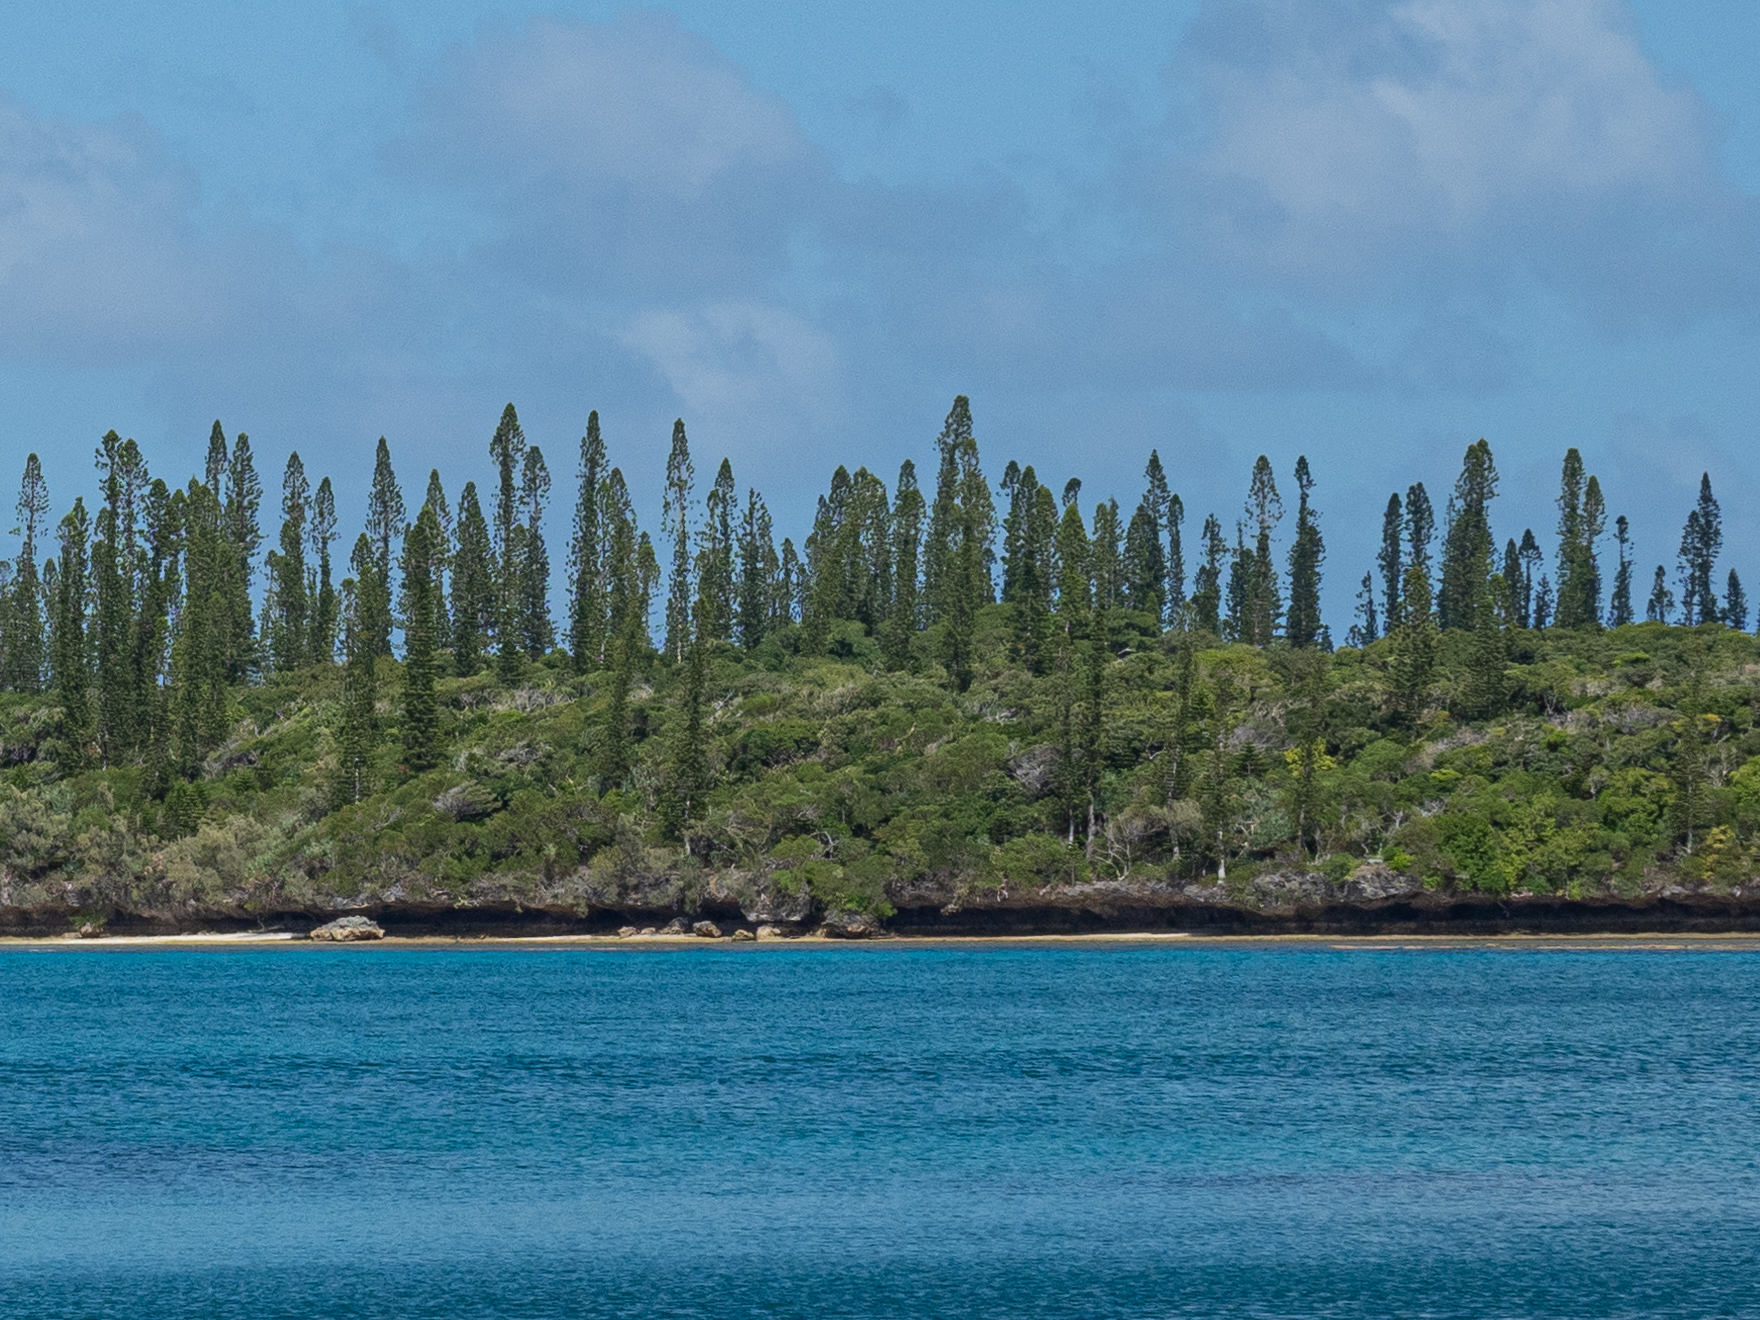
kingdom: Plantae
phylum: Tracheophyta
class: Pinopsida
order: Pinales
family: Araucariaceae
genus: Araucaria
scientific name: Araucaria columnaris
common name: Coral reef araucaria
